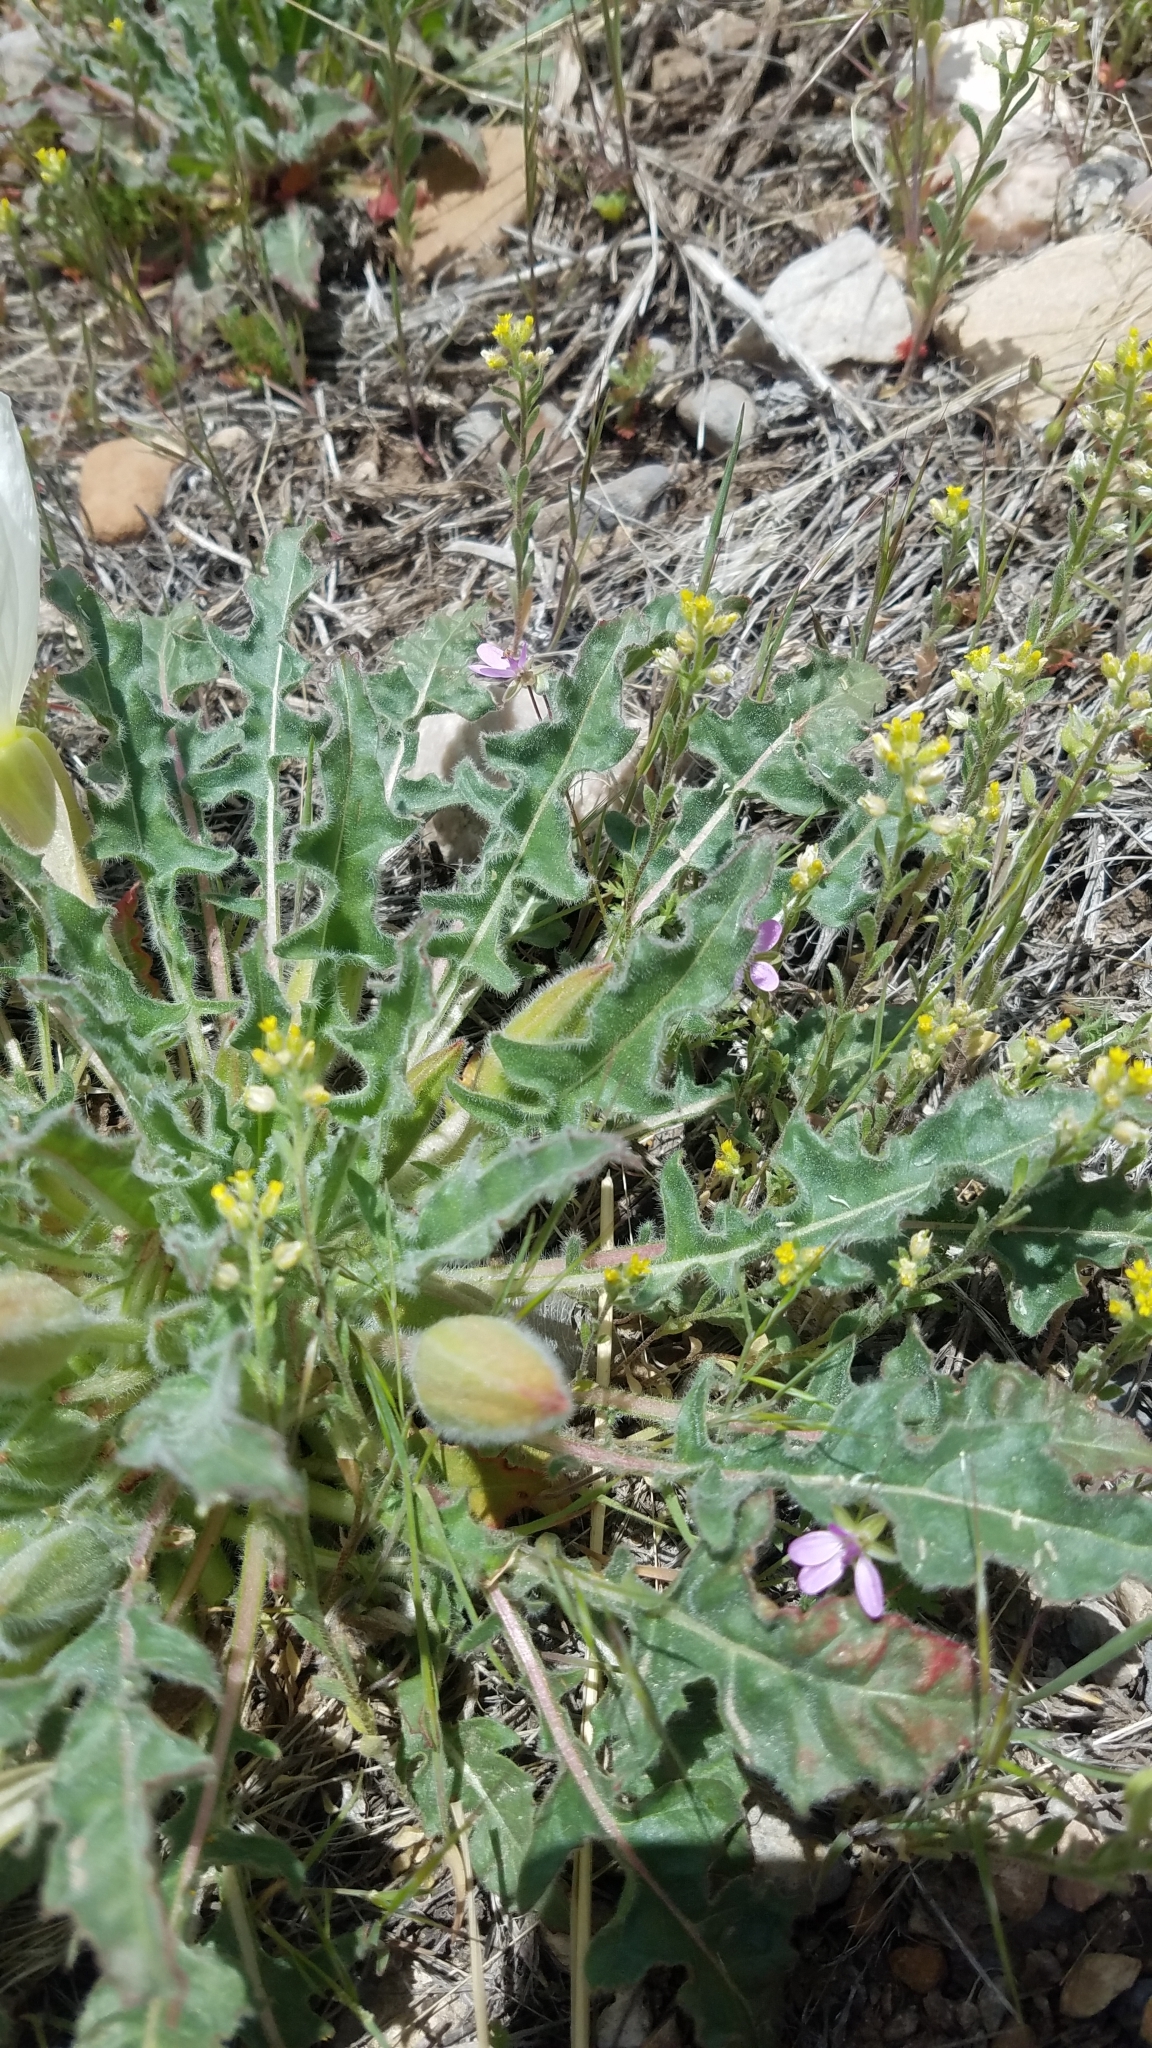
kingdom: Plantae
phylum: Tracheophyta
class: Magnoliopsida
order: Myrtales
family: Onagraceae
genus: Oenothera
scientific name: Oenothera cespitosa
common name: Tufted evening-primrose
